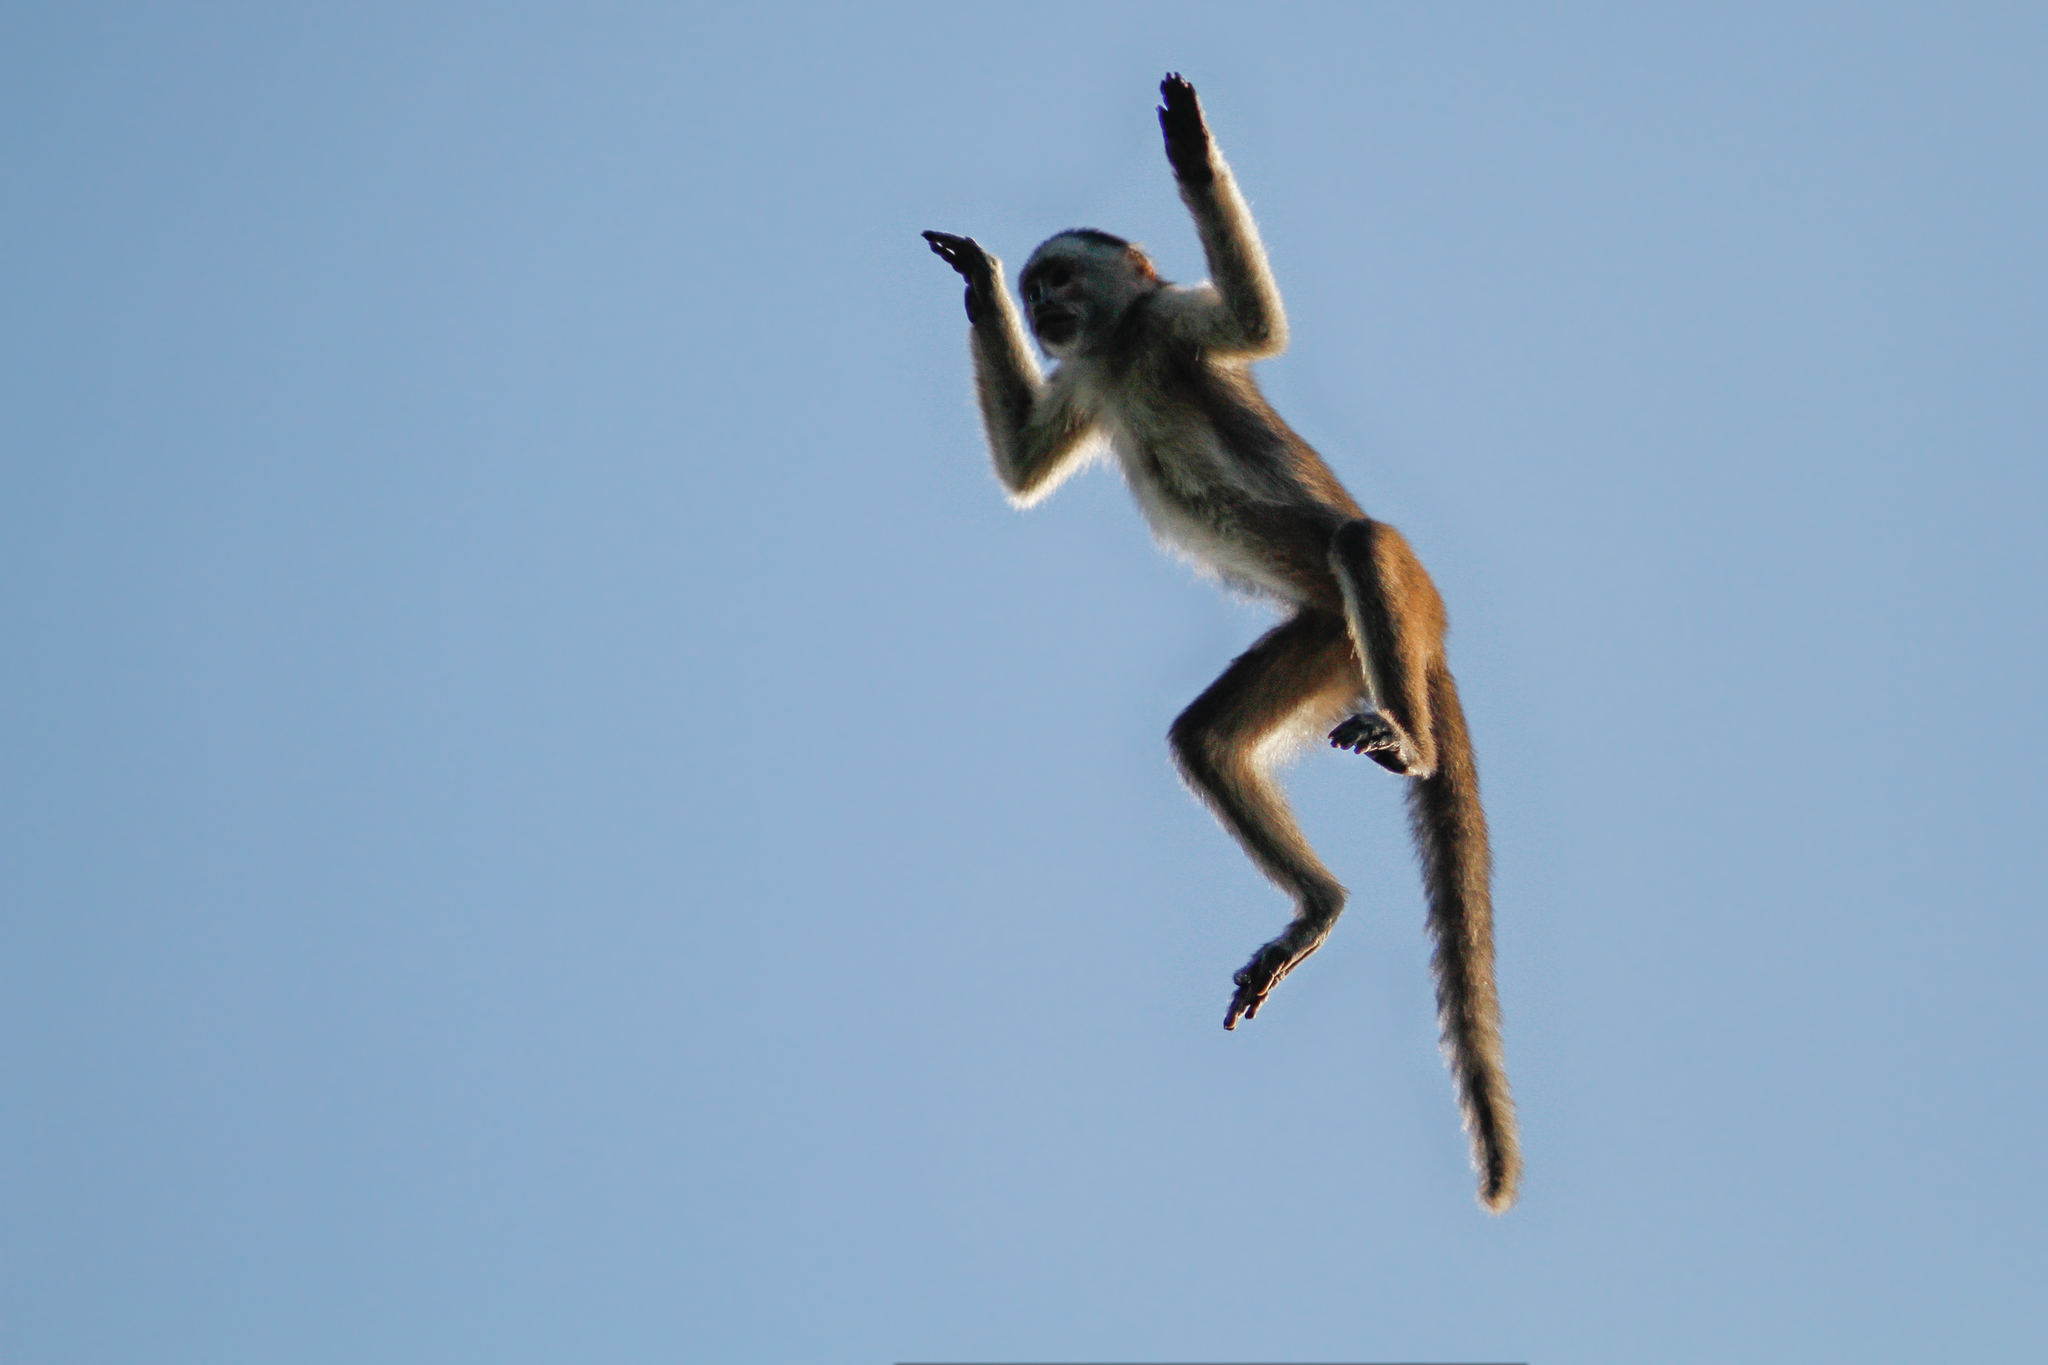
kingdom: Animalia
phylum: Chordata
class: Mammalia
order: Primates
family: Cebidae
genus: Cebus
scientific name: Cebus yuracus
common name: Peruvian white-fronted capuchin
